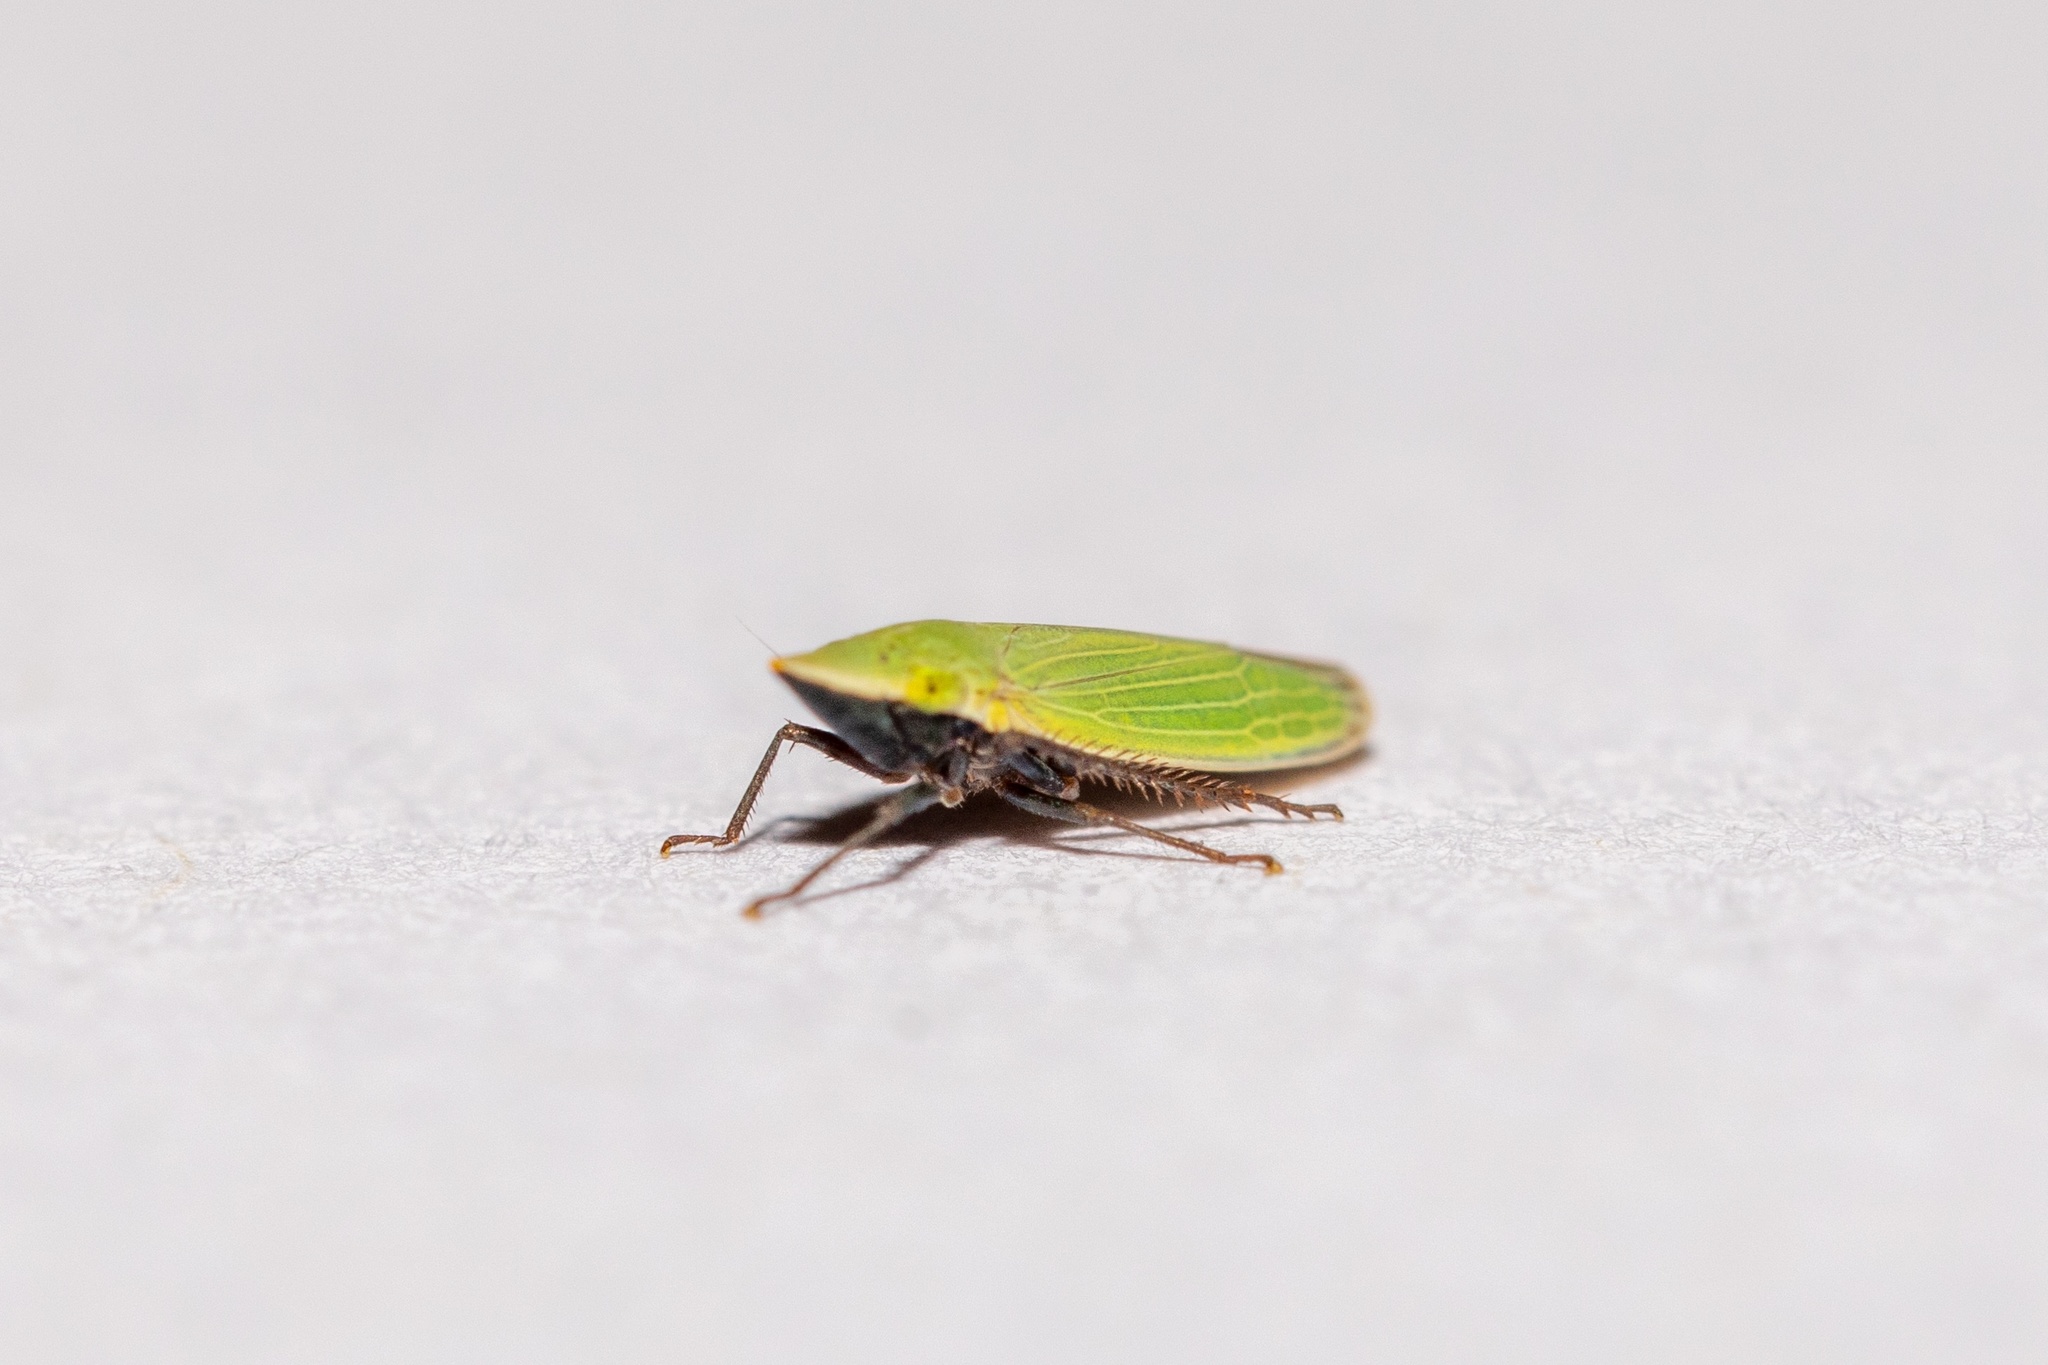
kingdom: Animalia
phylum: Arthropoda
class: Insecta
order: Hemiptera
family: Cicadellidae
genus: Draeculacephala
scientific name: Draeculacephala bradleyi
